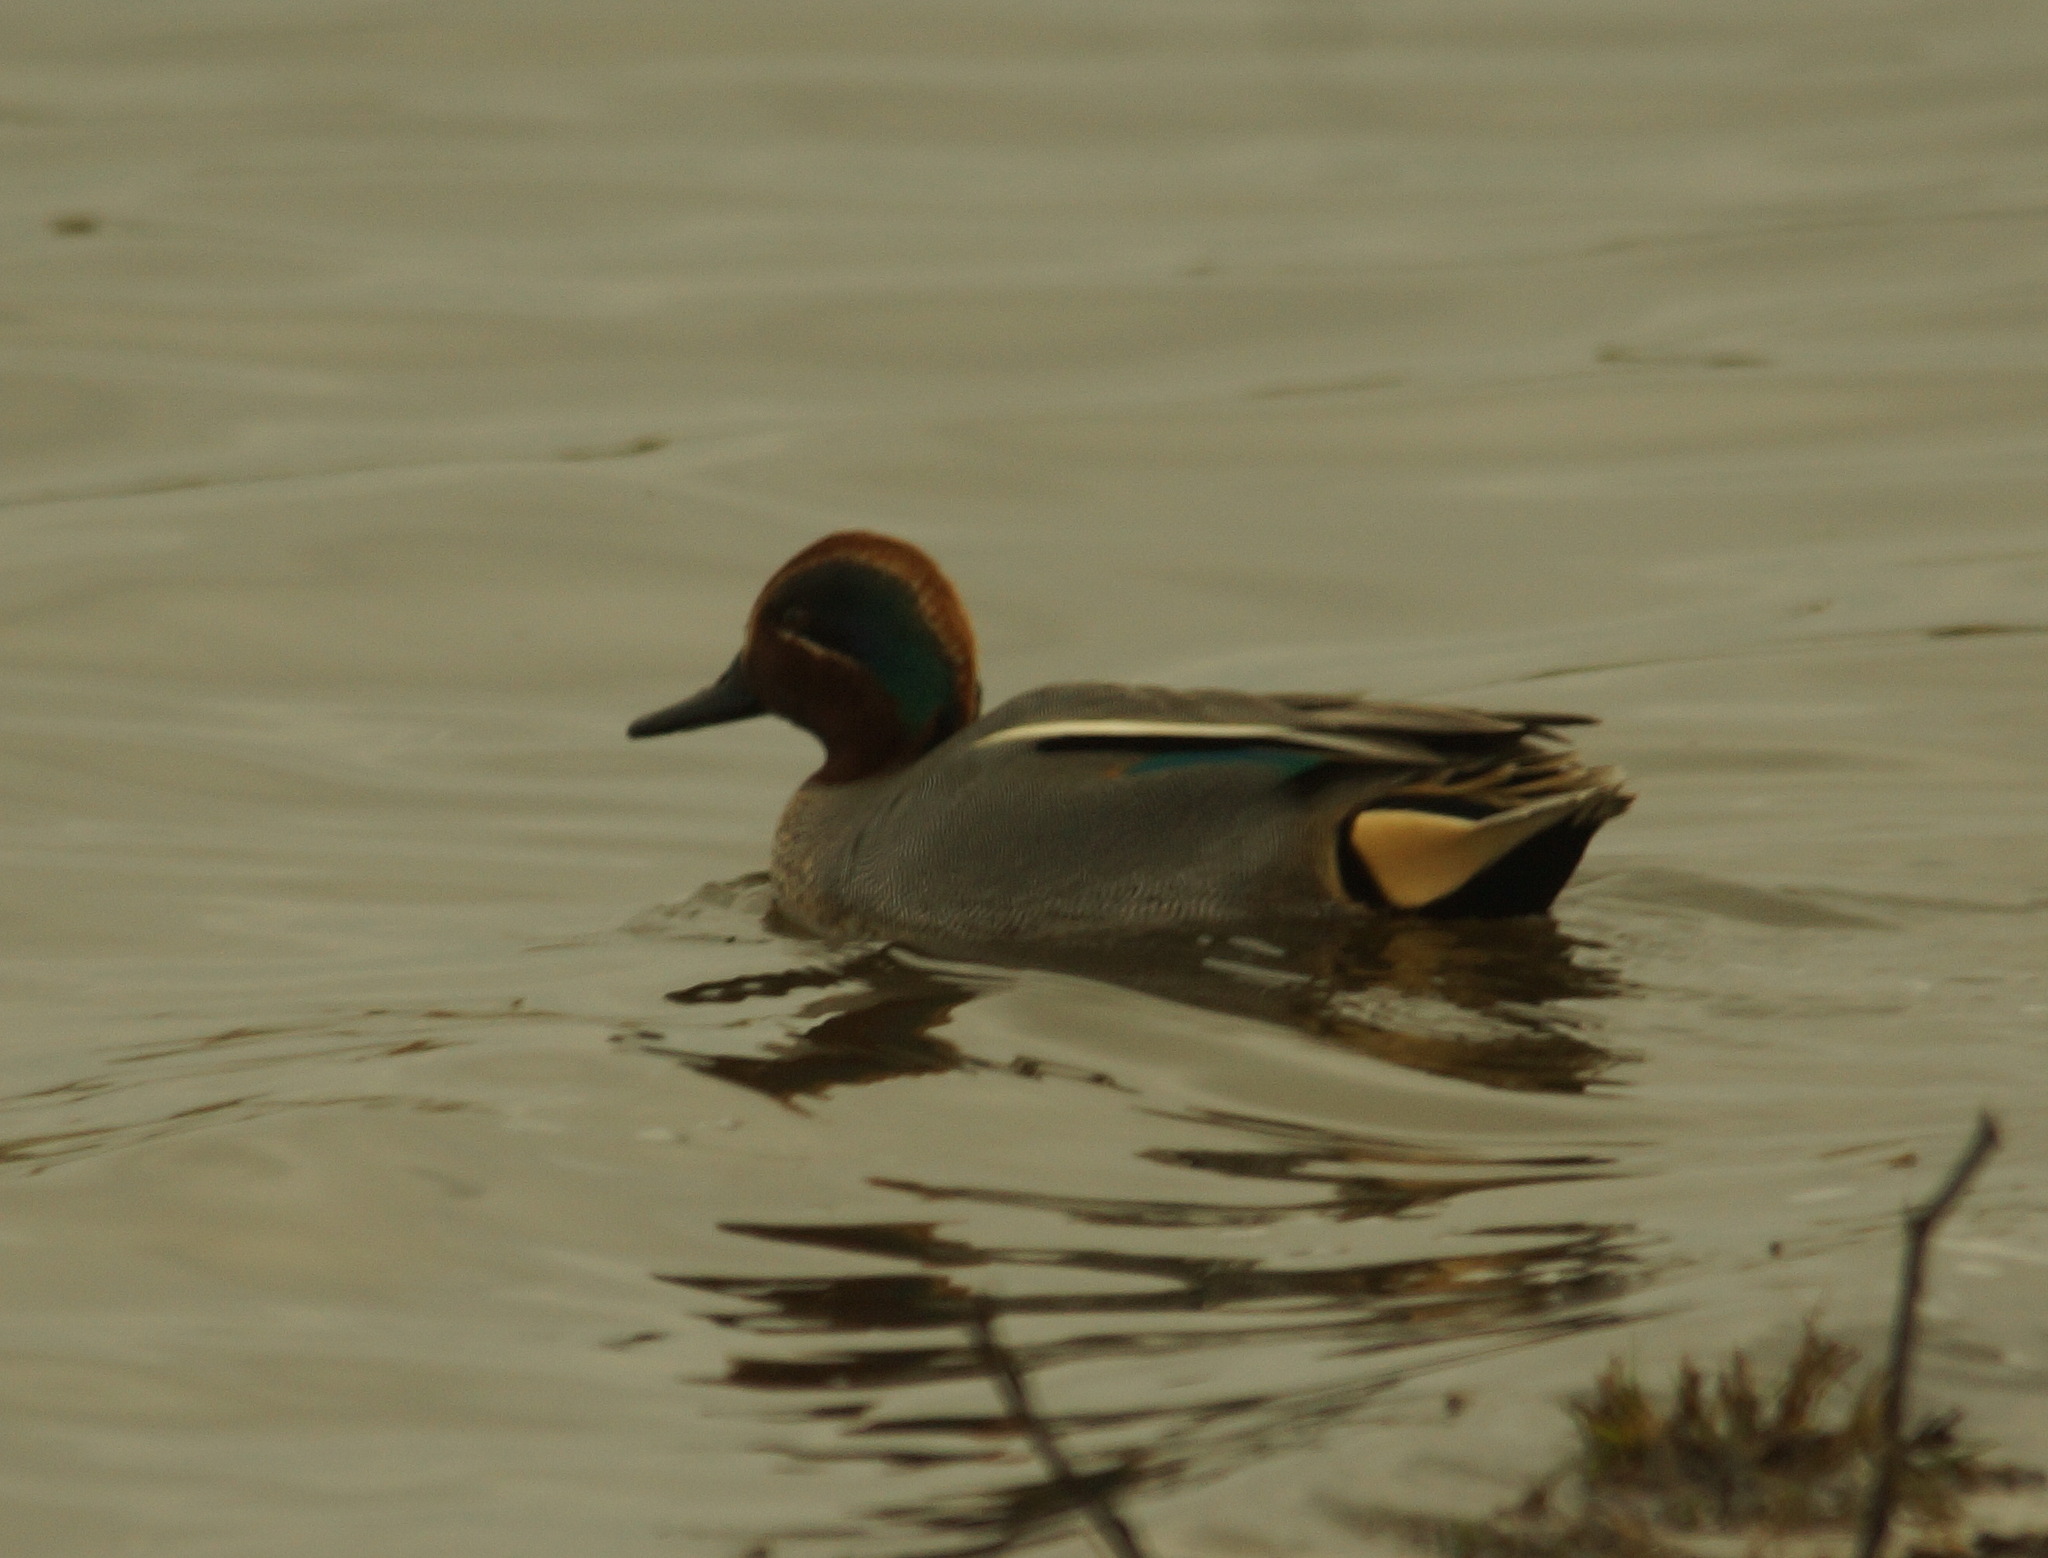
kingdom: Animalia
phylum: Chordata
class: Aves
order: Anseriformes
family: Anatidae
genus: Anas
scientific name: Anas crecca
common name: Eurasian teal
